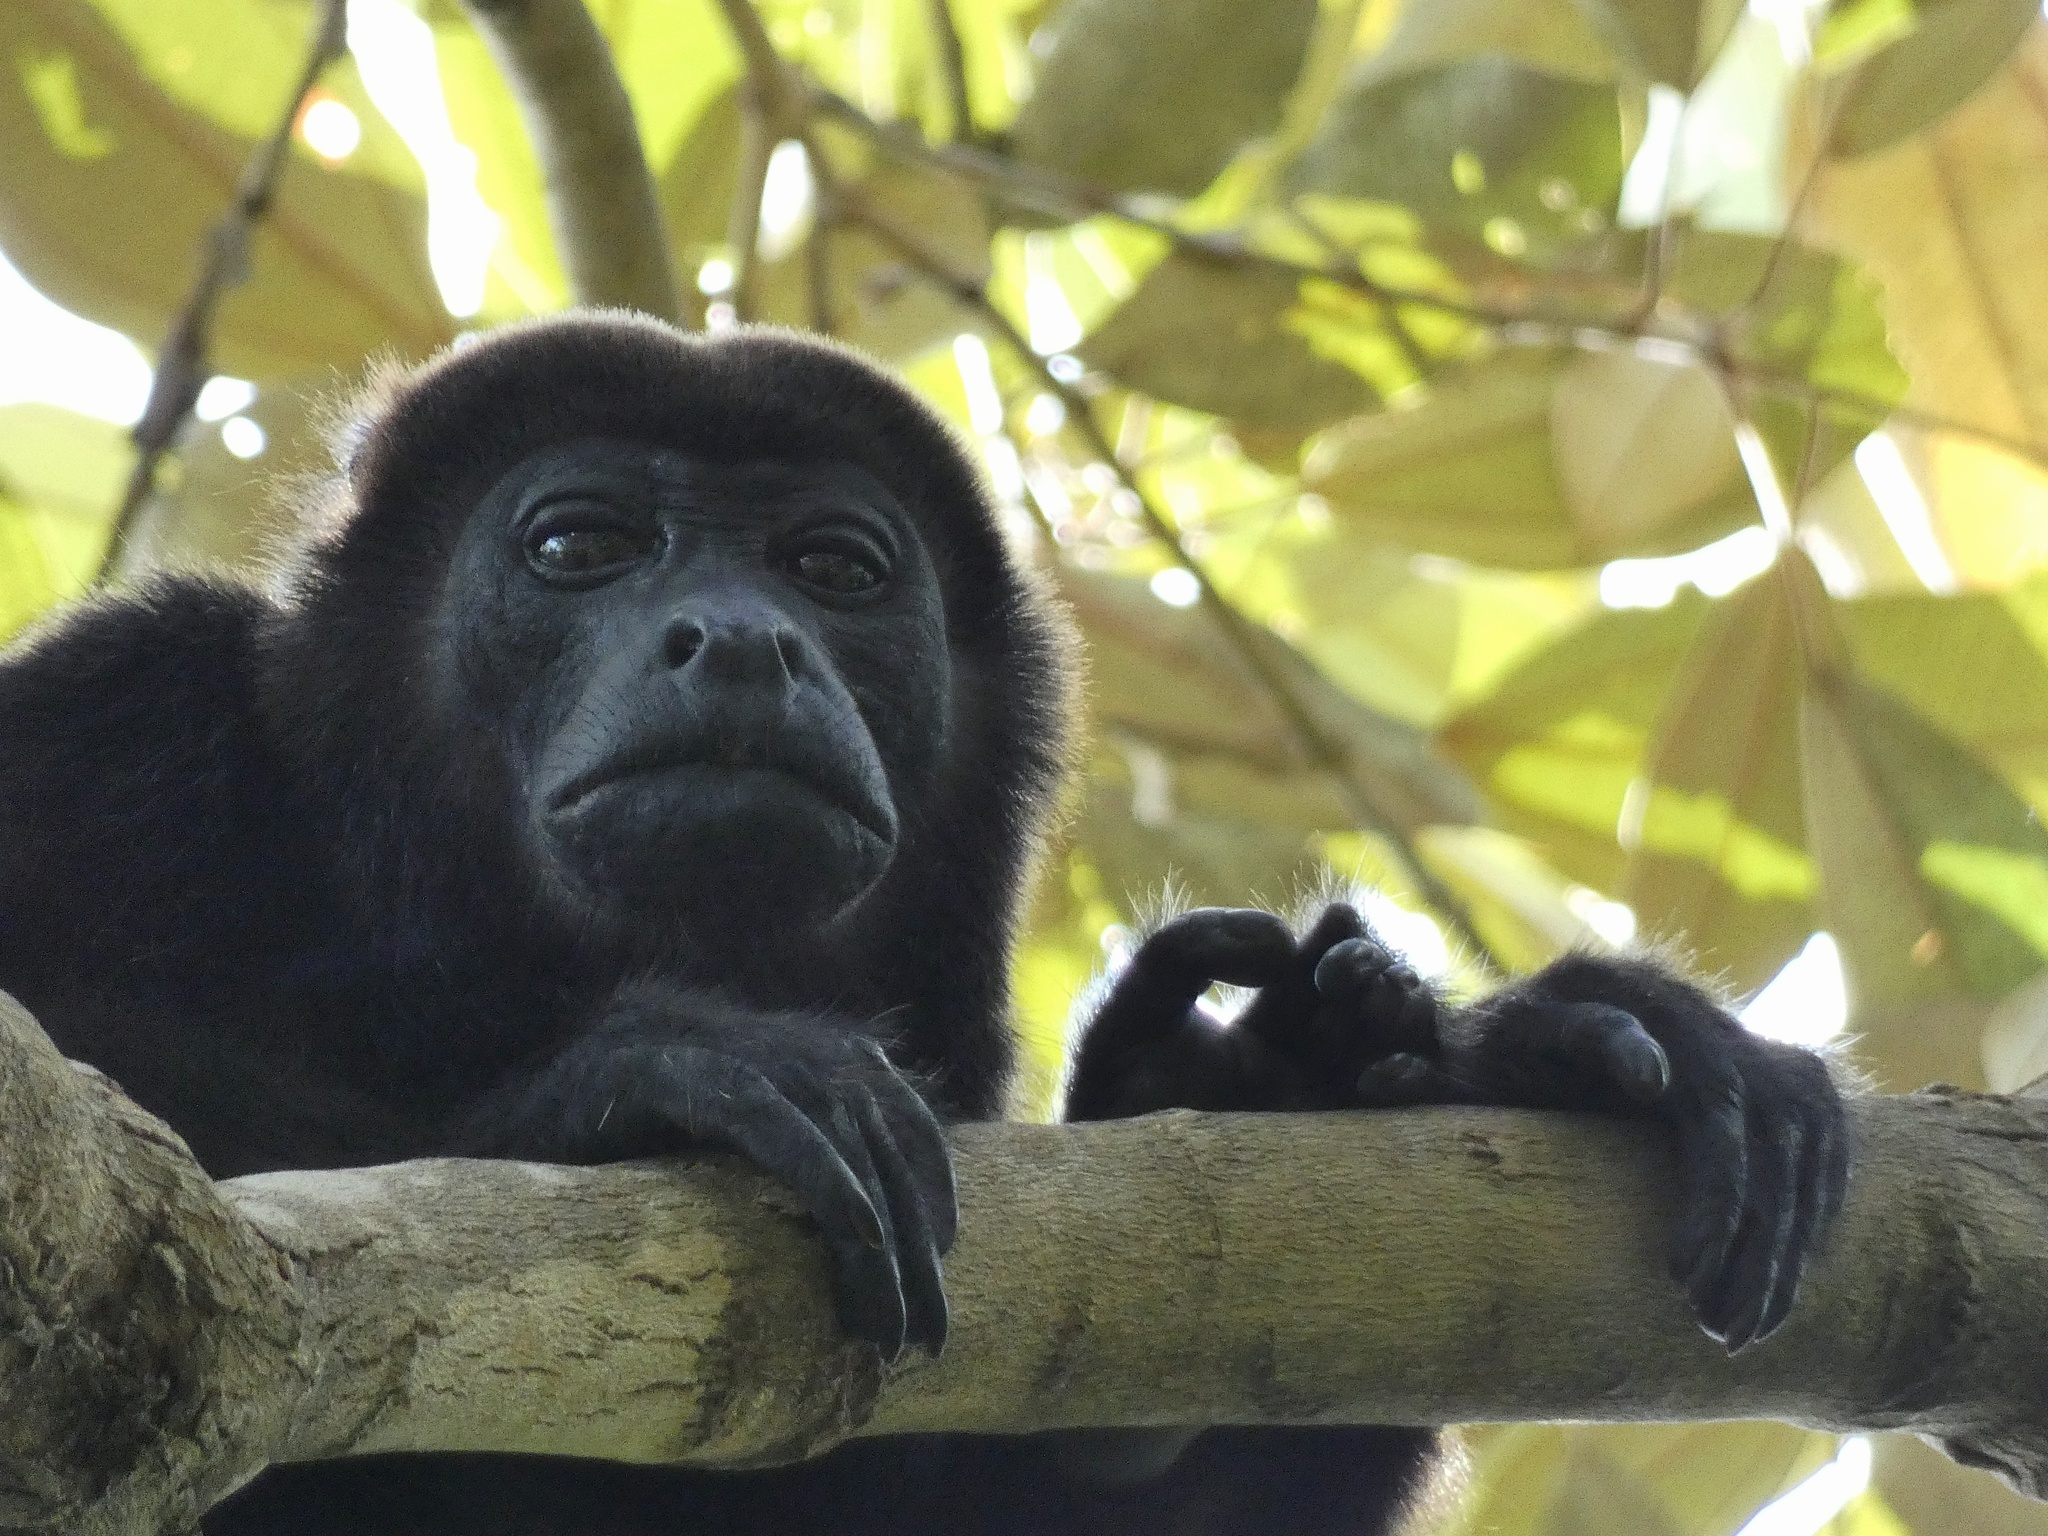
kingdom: Animalia
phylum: Chordata
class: Mammalia
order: Primates
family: Atelidae
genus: Alouatta
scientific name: Alouatta palliata
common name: Mantled howler
